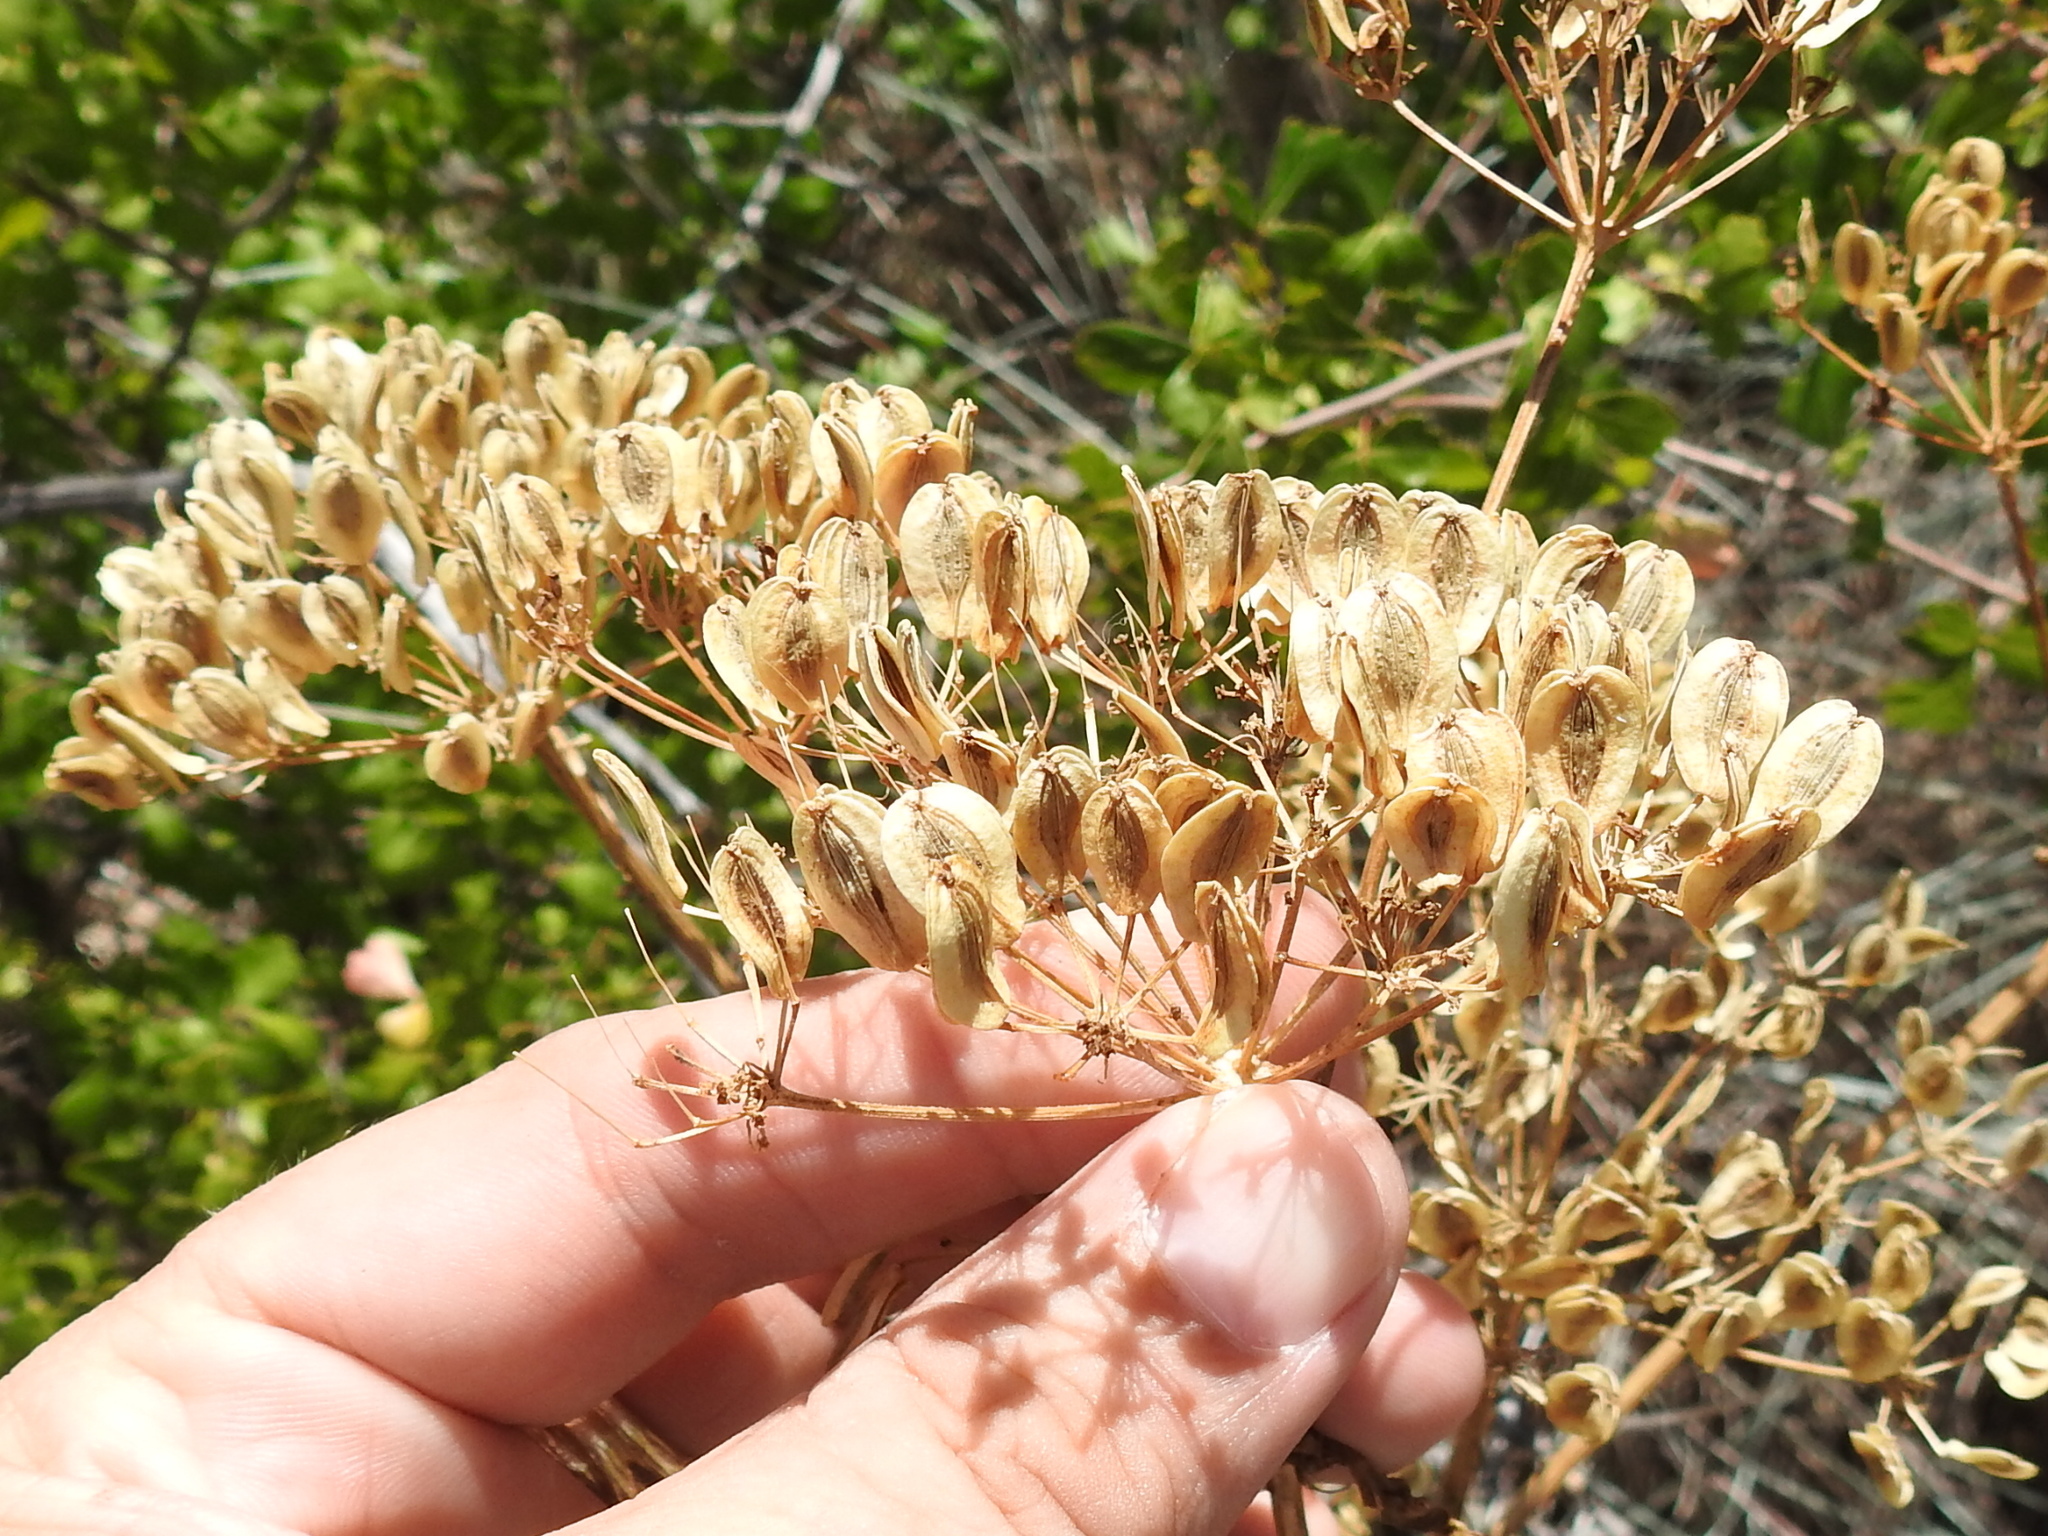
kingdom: Plantae
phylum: Tracheophyta
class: Magnoliopsida
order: Apiales
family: Apiaceae
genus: Polytaenia
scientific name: Polytaenia texana
